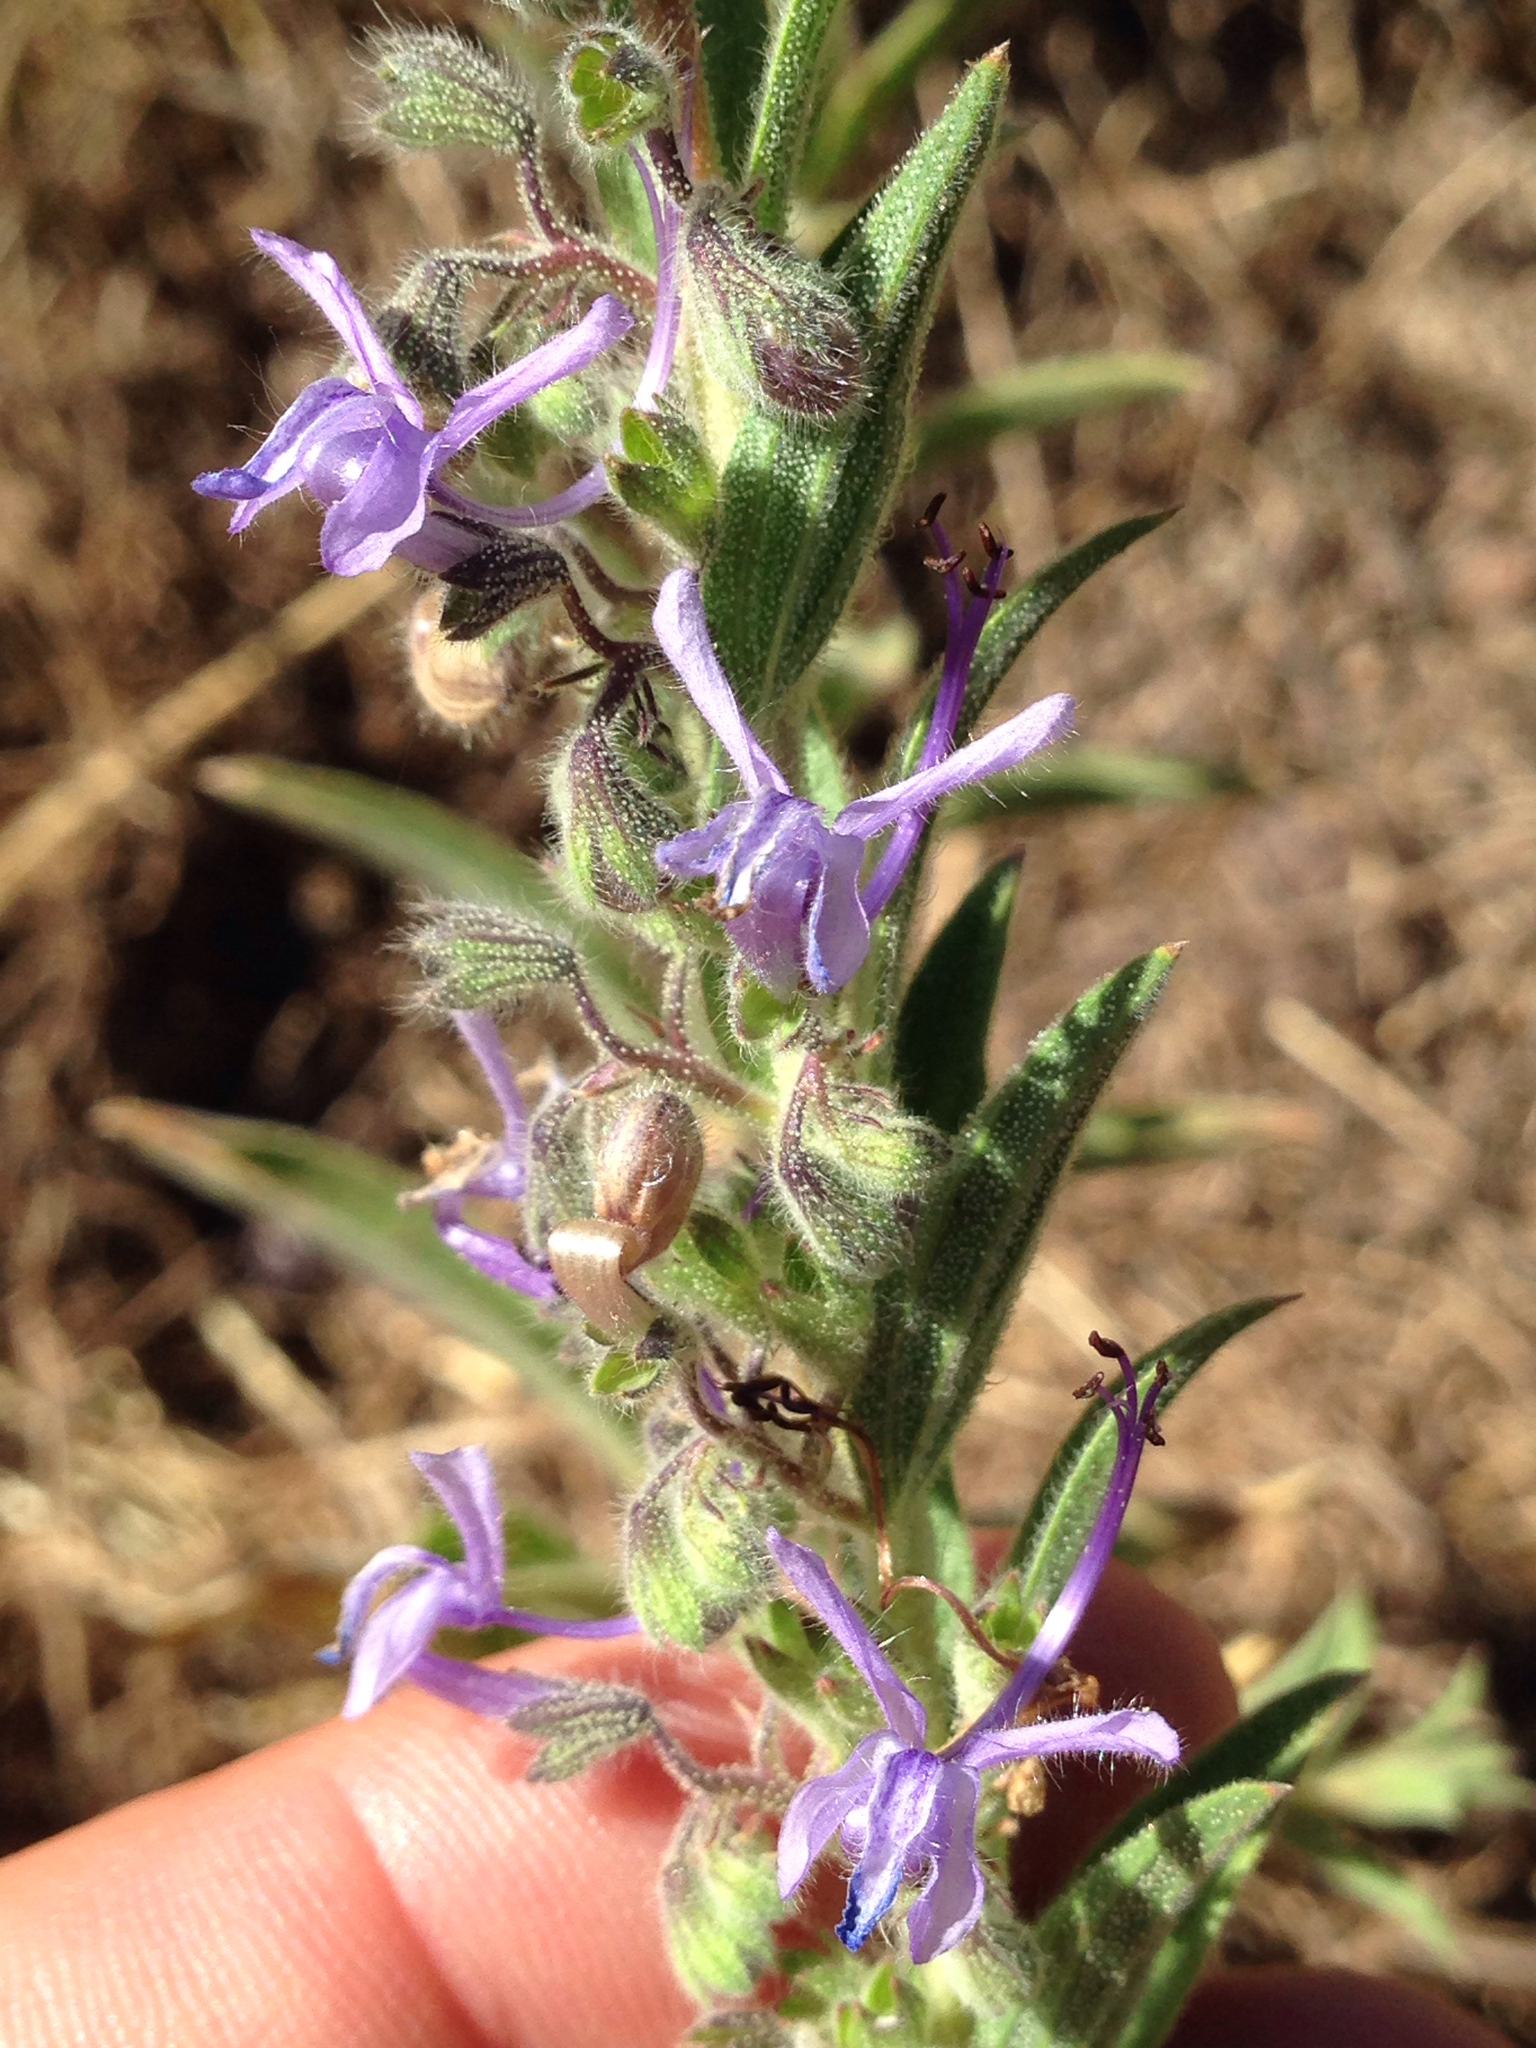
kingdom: Plantae
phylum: Tracheophyta
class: Magnoliopsida
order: Lamiales
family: Lamiaceae
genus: Trichostema
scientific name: Trichostema lanceolatum
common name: Vinegar-weed
